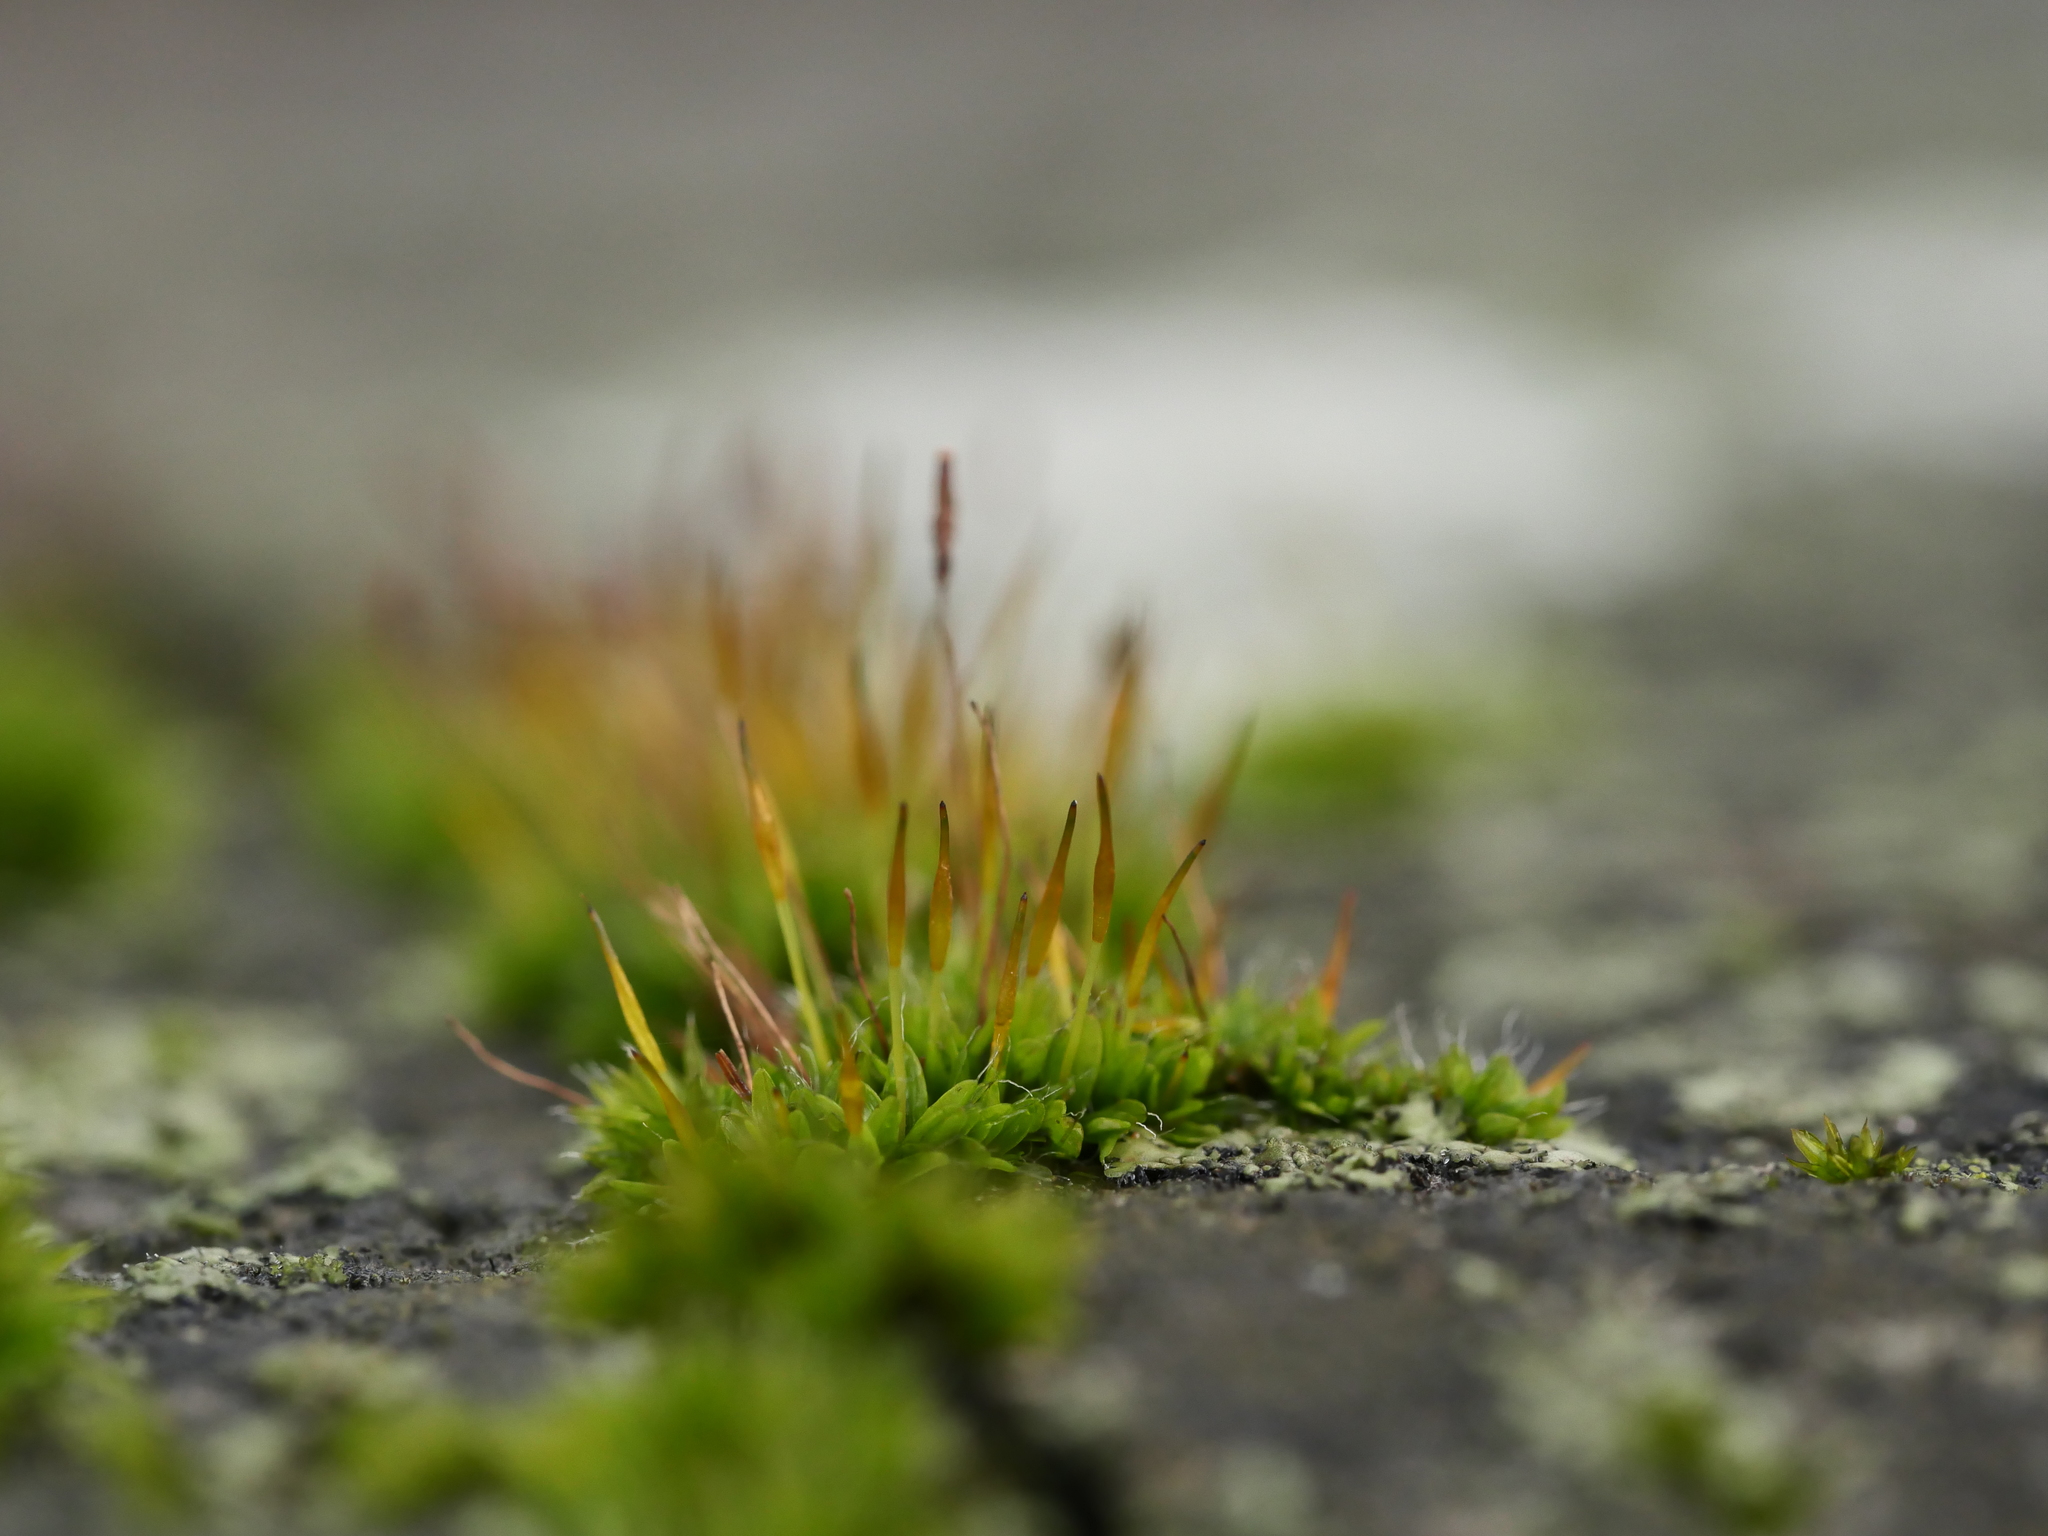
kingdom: Plantae
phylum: Bryophyta
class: Bryopsida
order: Pottiales
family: Pottiaceae
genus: Tortula
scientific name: Tortula muralis
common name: Wall screw-moss
